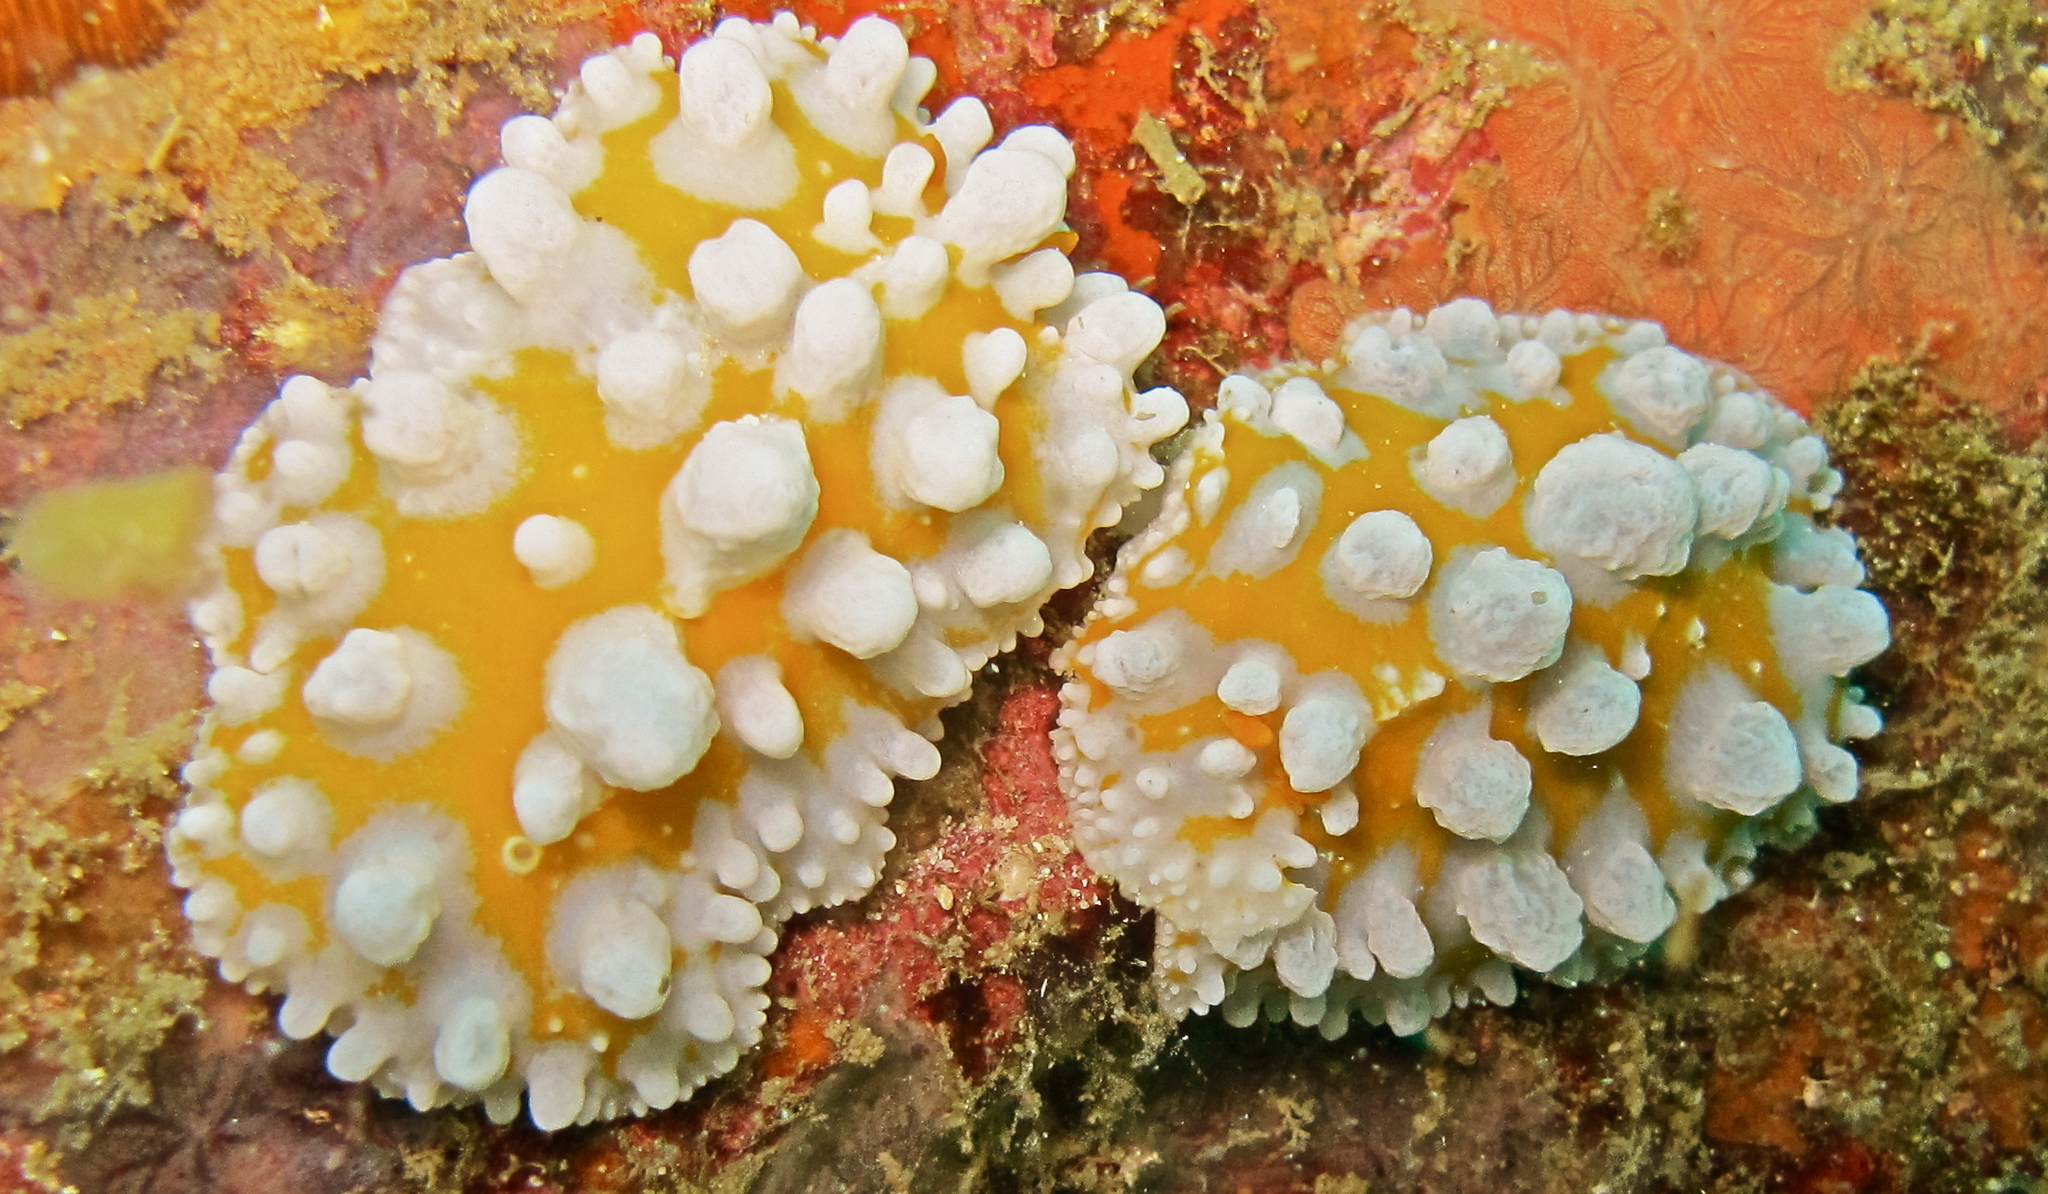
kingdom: Animalia
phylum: Mollusca
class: Gastropoda
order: Nudibranchia
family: Phyllidiidae
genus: Phyllidia
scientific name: Phyllidia ocellata
